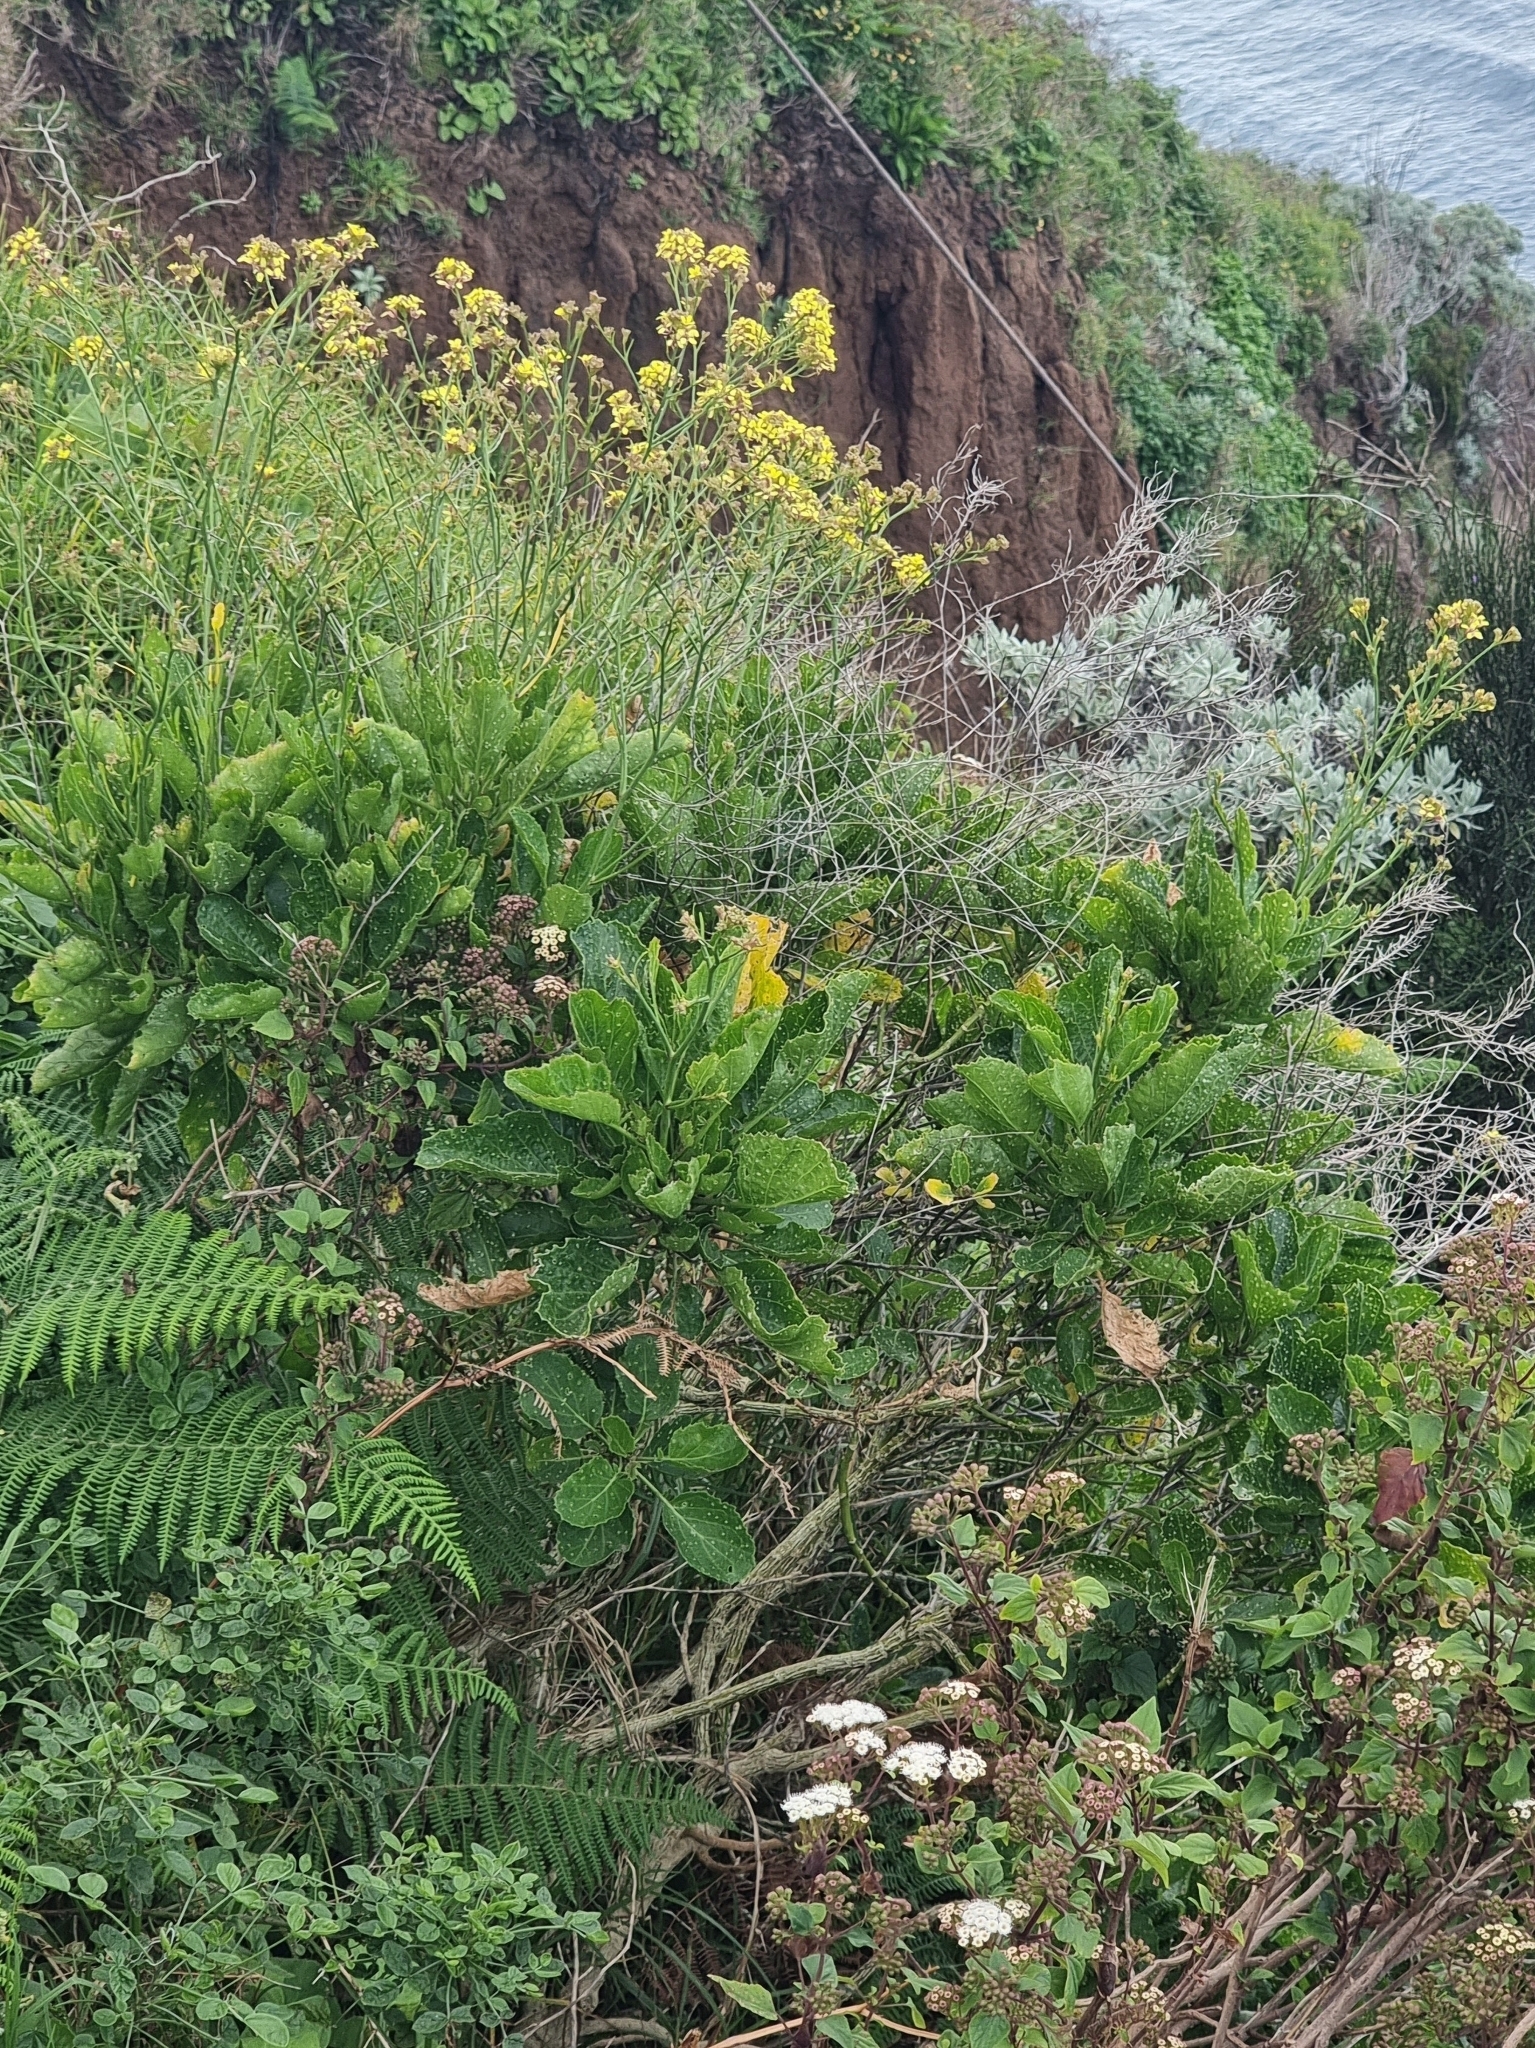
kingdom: Plantae
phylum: Tracheophyta
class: Magnoliopsida
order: Brassicales
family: Brassicaceae
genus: Sinapidendron
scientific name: Sinapidendron rupestre
